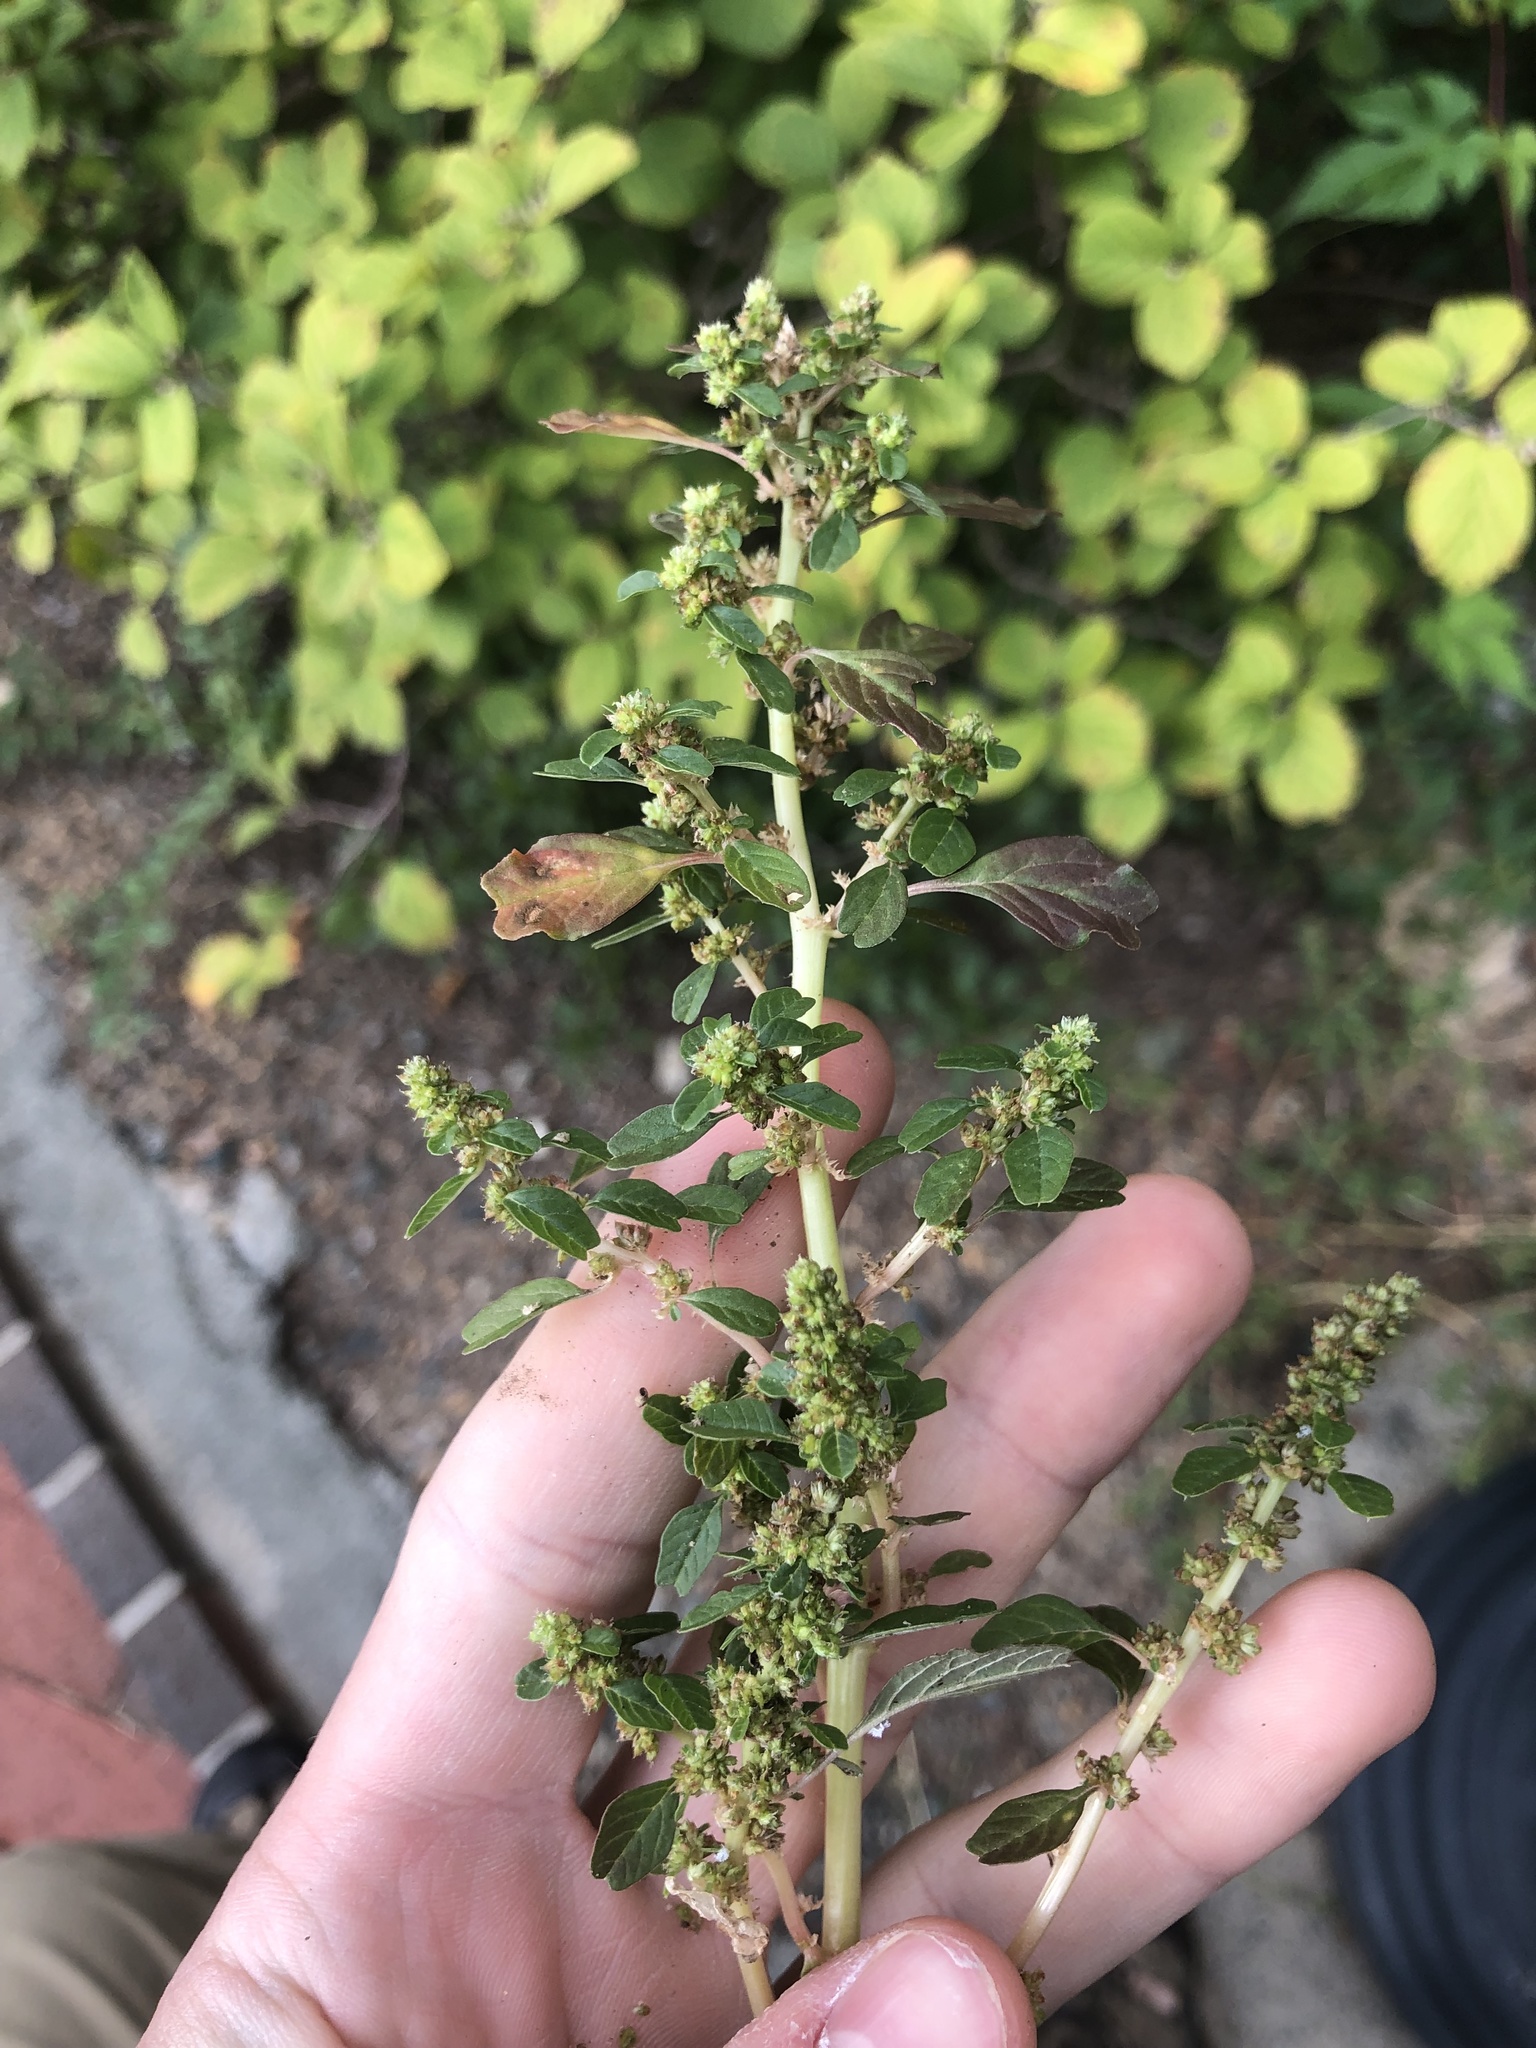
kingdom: Plantae
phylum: Tracheophyta
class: Magnoliopsida
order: Caryophyllales
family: Amaranthaceae
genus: Amaranthus
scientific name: Amaranthus emarginatus
